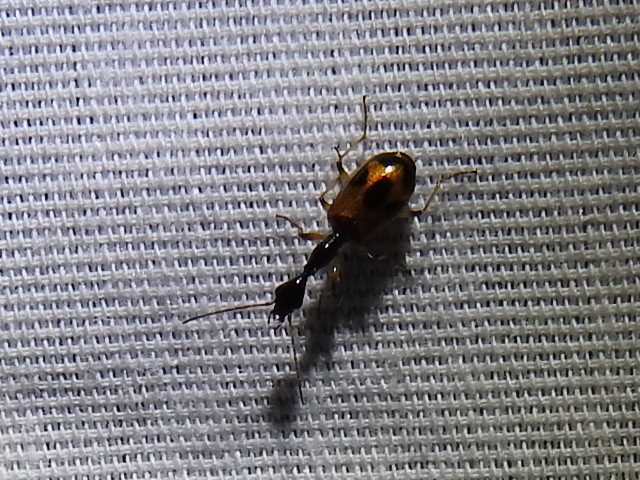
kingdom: Animalia
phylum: Arthropoda
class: Insecta
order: Coleoptera
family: Carabidae
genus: Colliuris
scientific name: Colliuris pensylvanica
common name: Long-necked ground beetle
